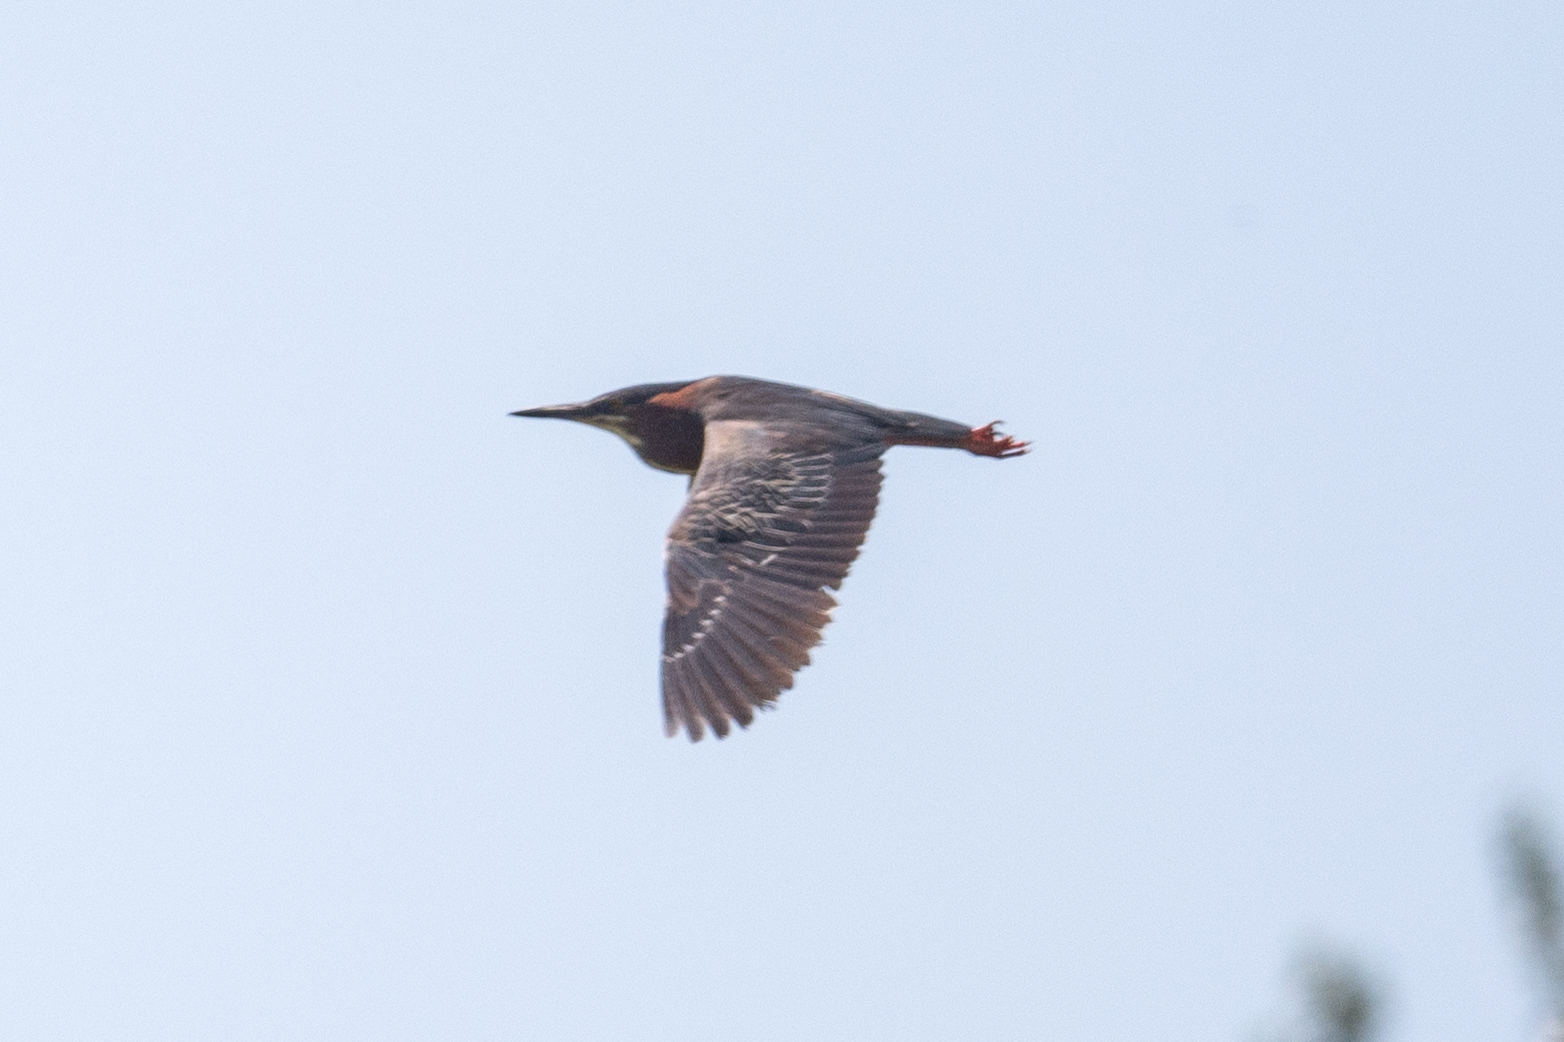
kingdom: Animalia
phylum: Chordata
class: Aves
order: Pelecaniformes
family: Ardeidae
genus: Butorides
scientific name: Butorides virescens
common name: Green heron
